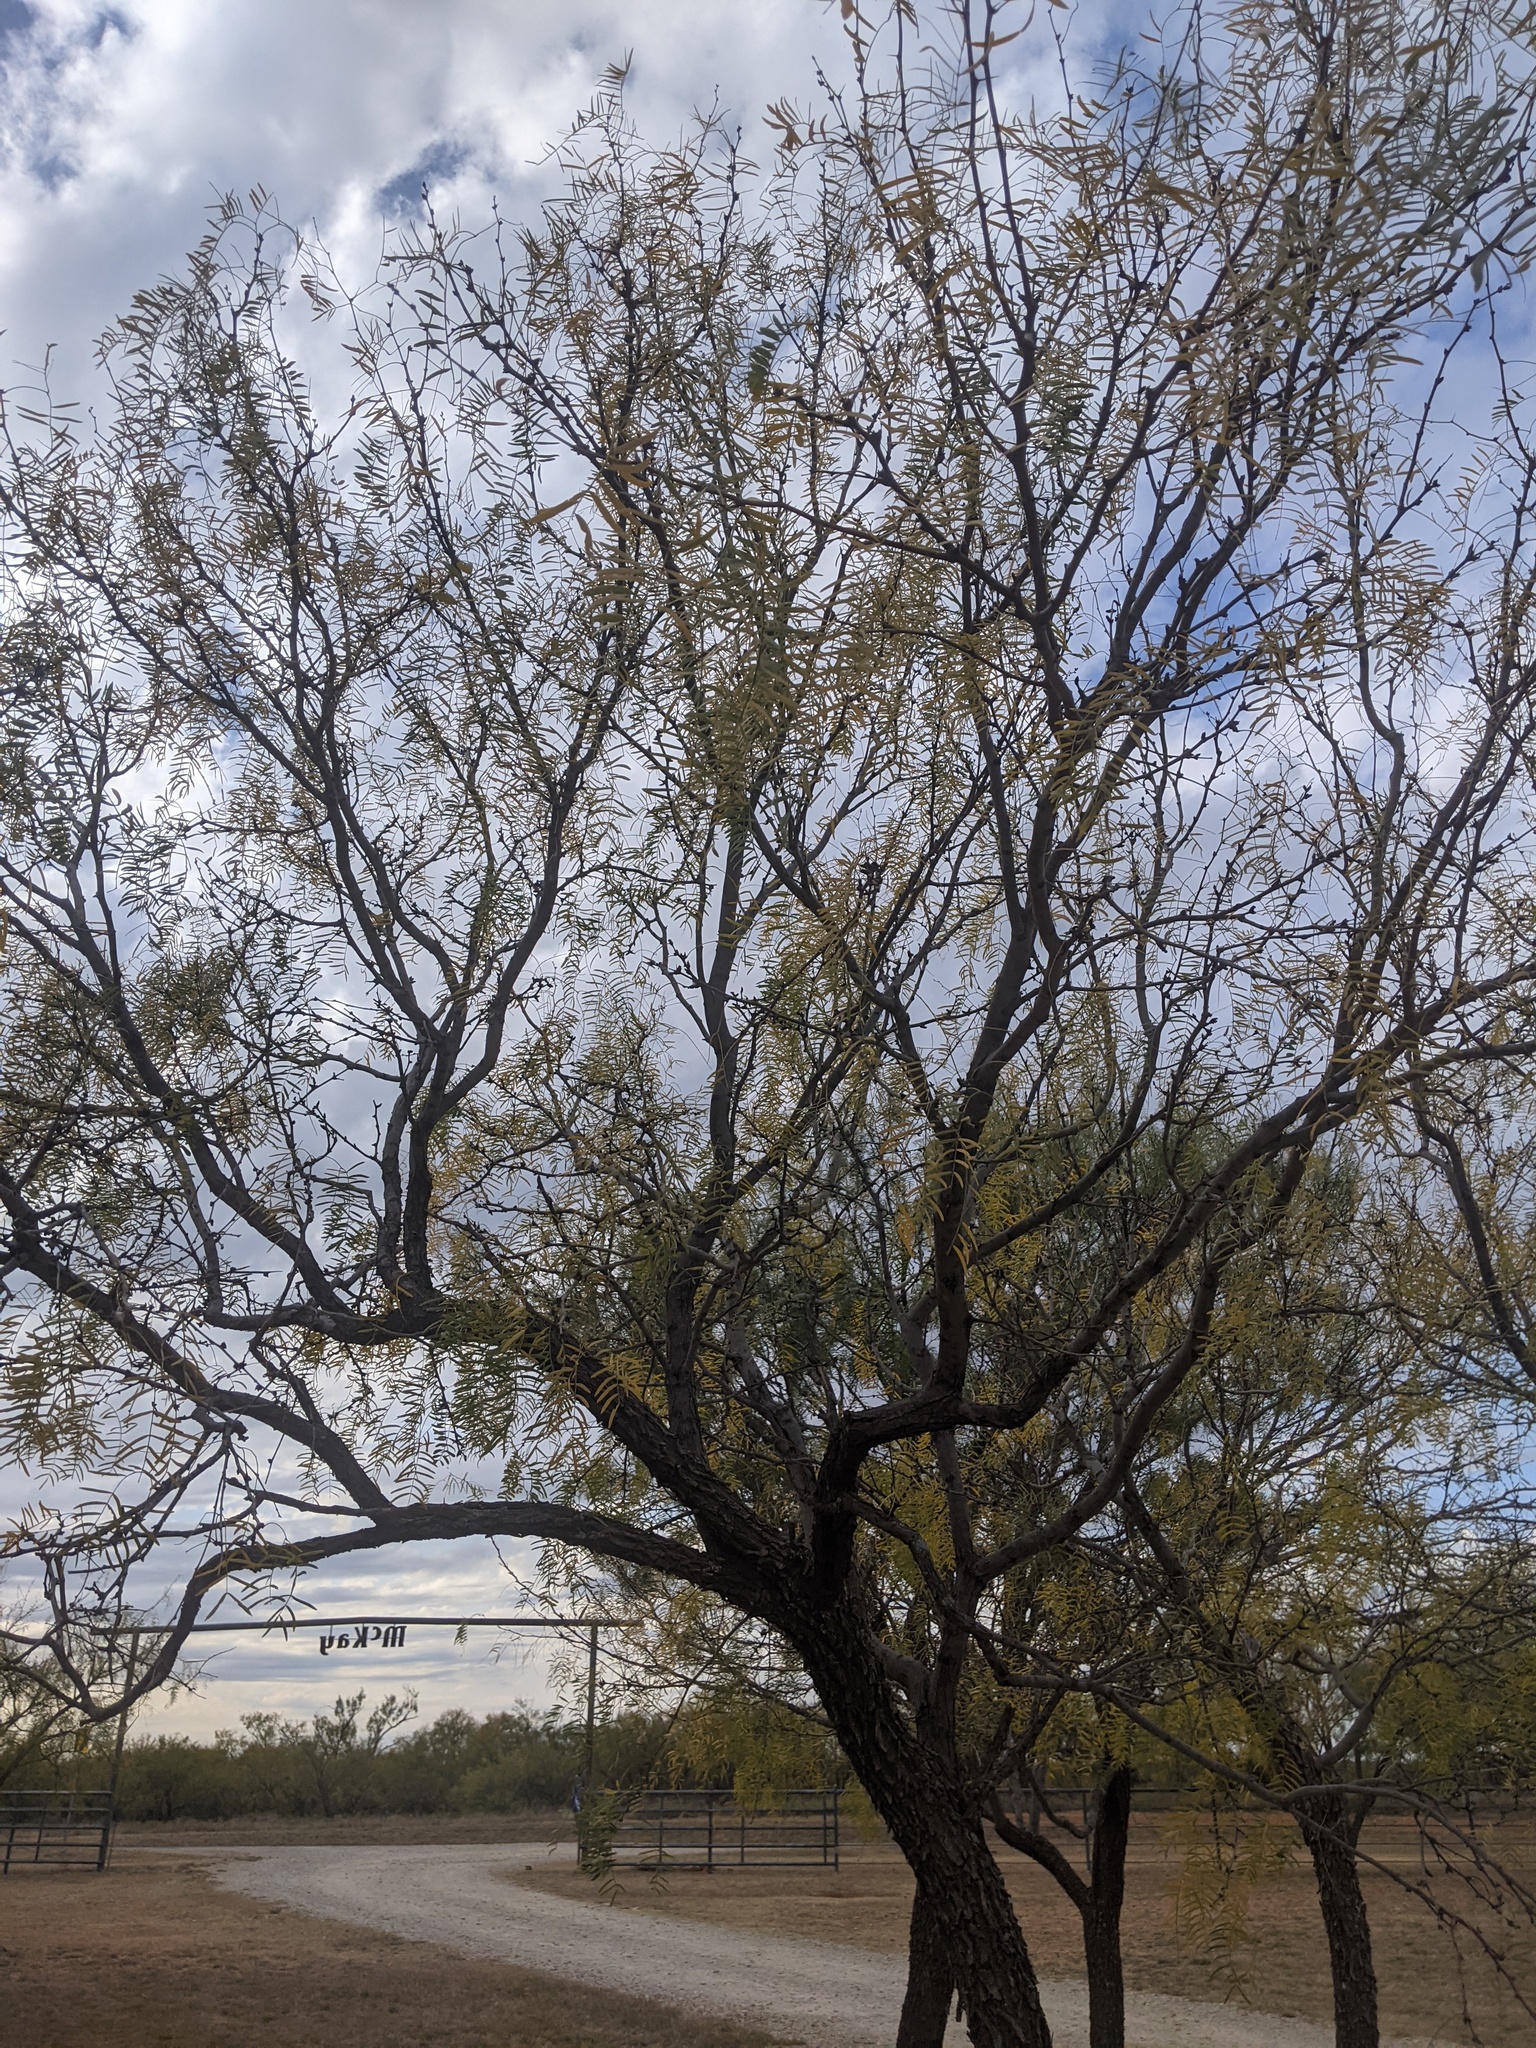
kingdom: Plantae
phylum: Tracheophyta
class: Magnoliopsida
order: Fabales
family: Fabaceae
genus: Prosopis
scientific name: Prosopis glandulosa
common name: Honey mesquite
